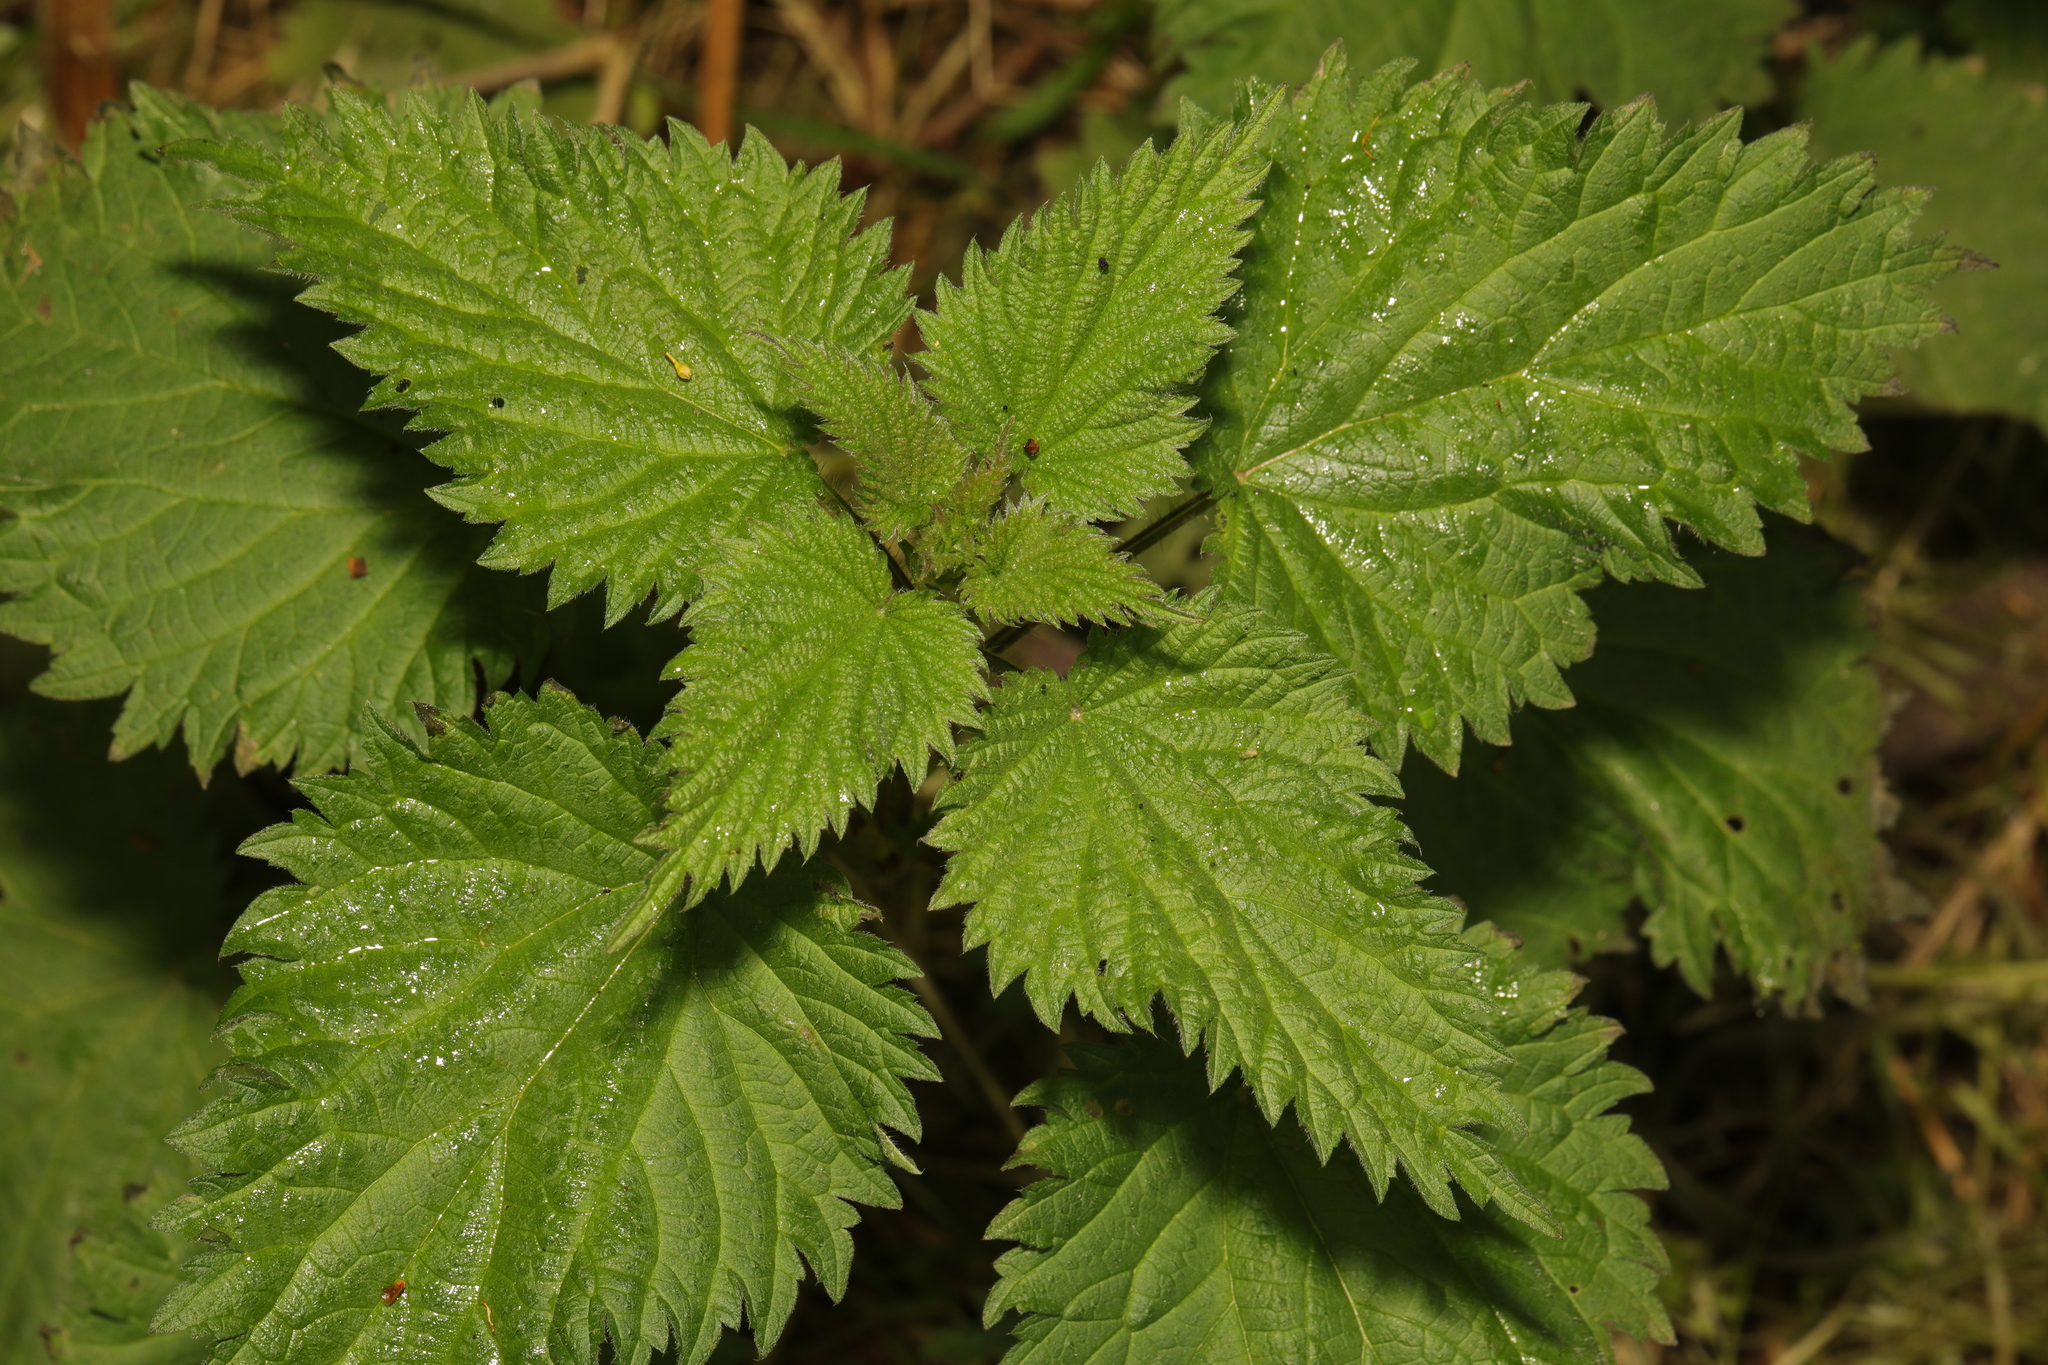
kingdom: Plantae
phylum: Tracheophyta
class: Magnoliopsida
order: Rosales
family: Urticaceae
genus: Urtica
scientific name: Urtica dioica
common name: Common nettle
